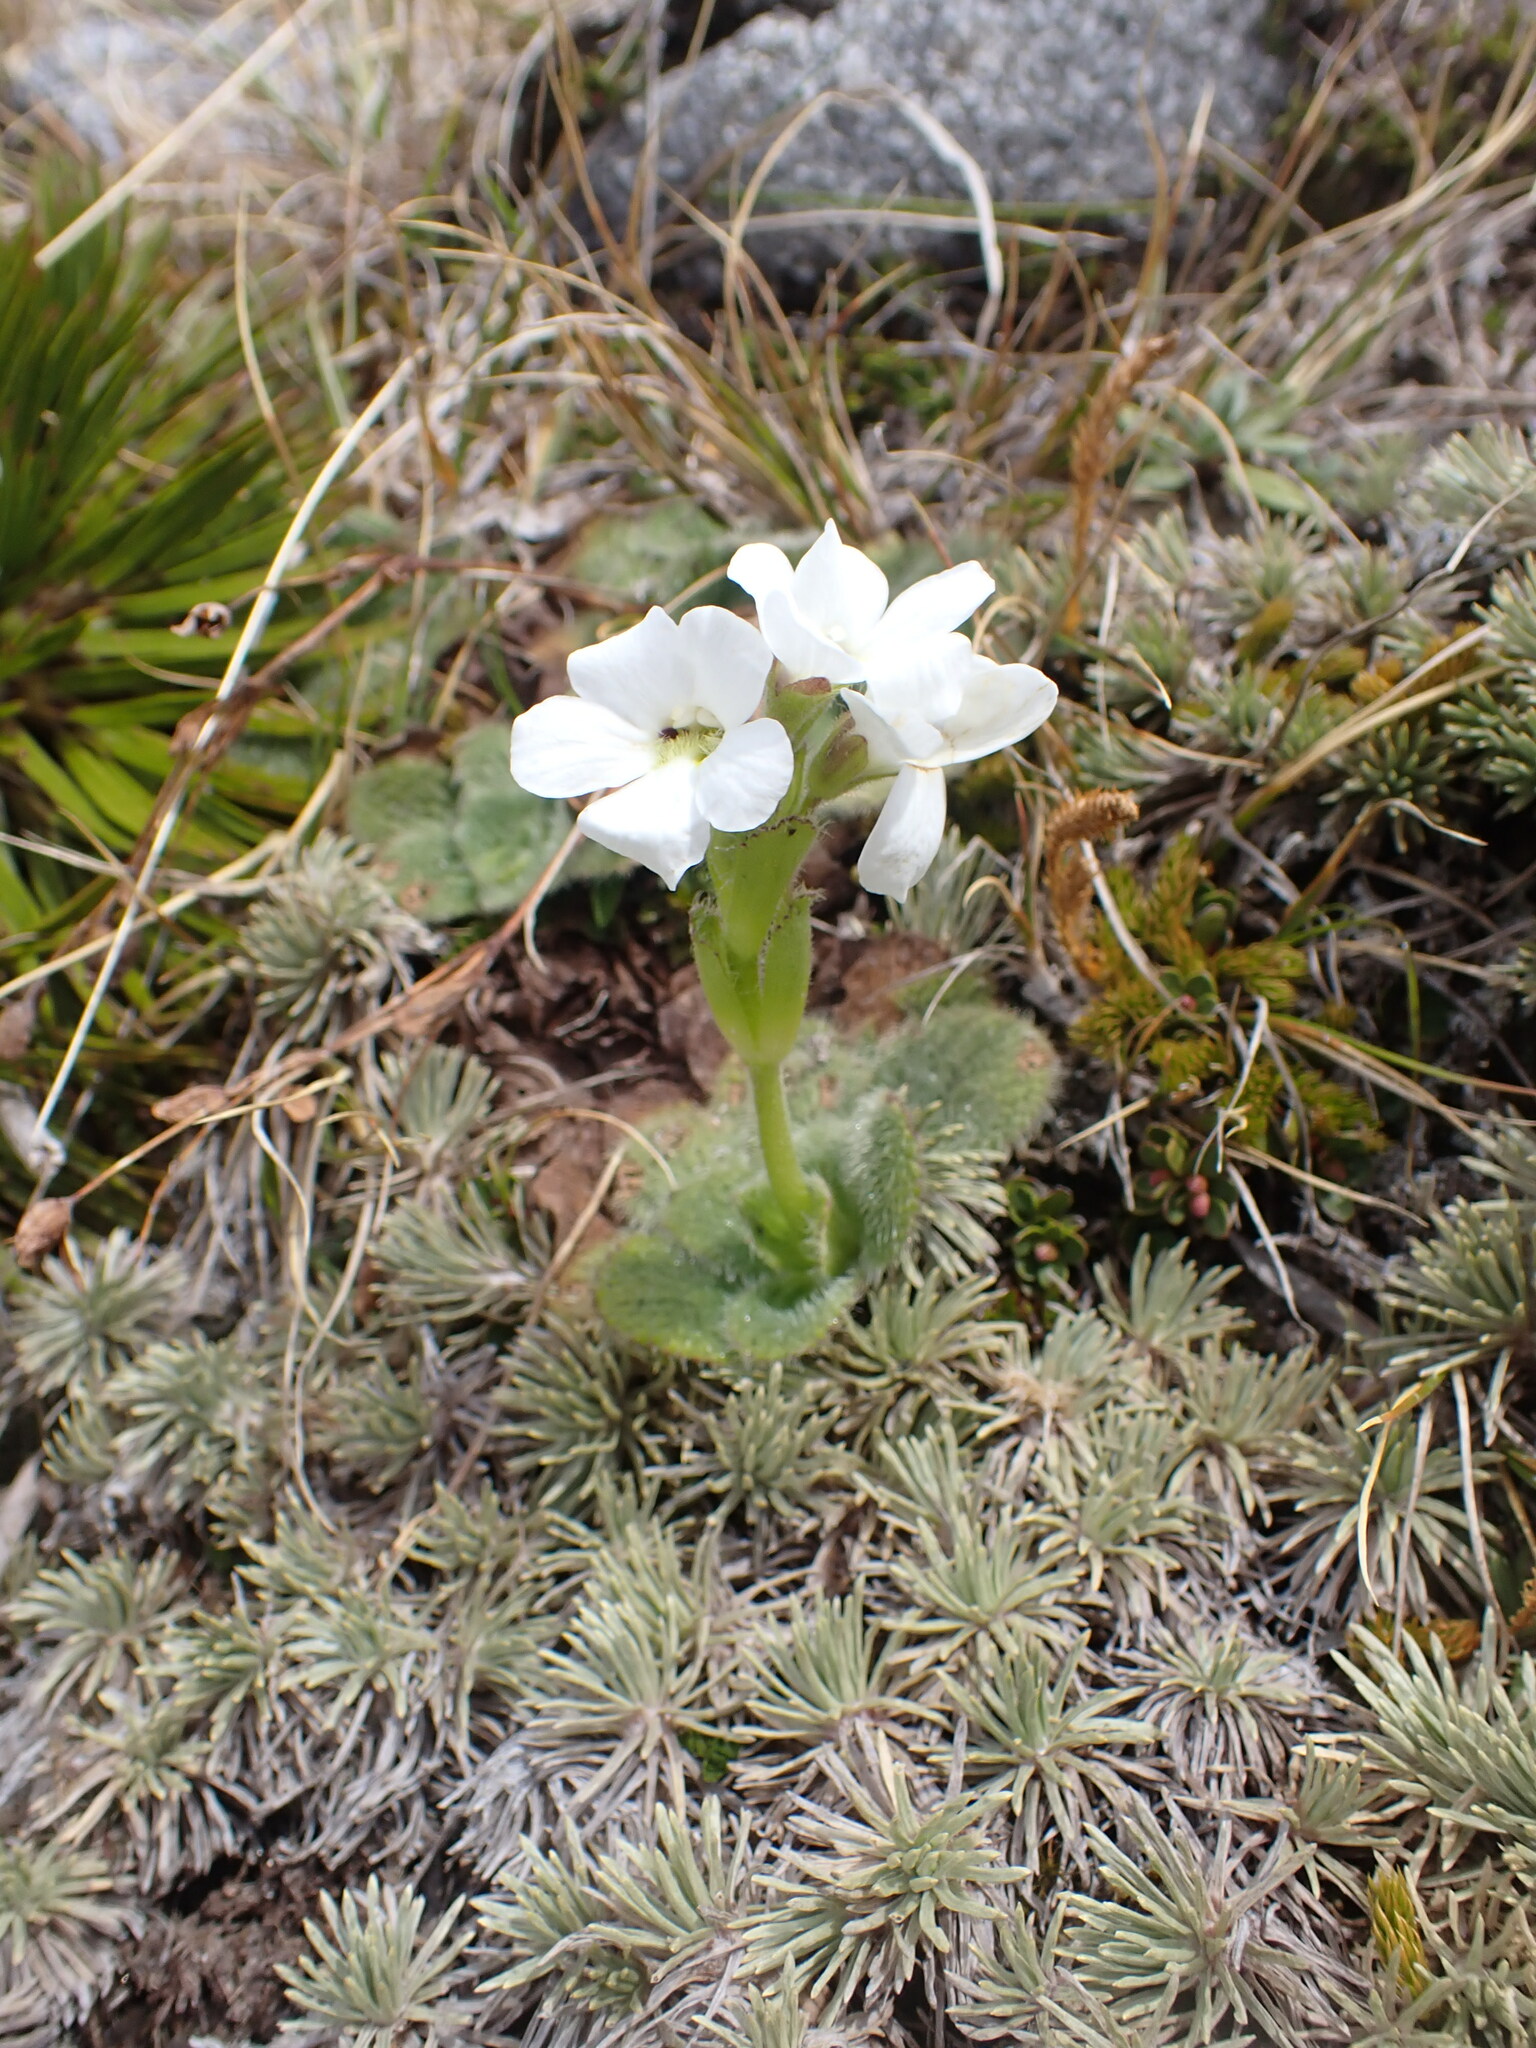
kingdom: Plantae
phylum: Tracheophyta
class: Magnoliopsida
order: Lamiales
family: Plantaginaceae
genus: Ourisia
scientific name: Ourisia sessilifolia
